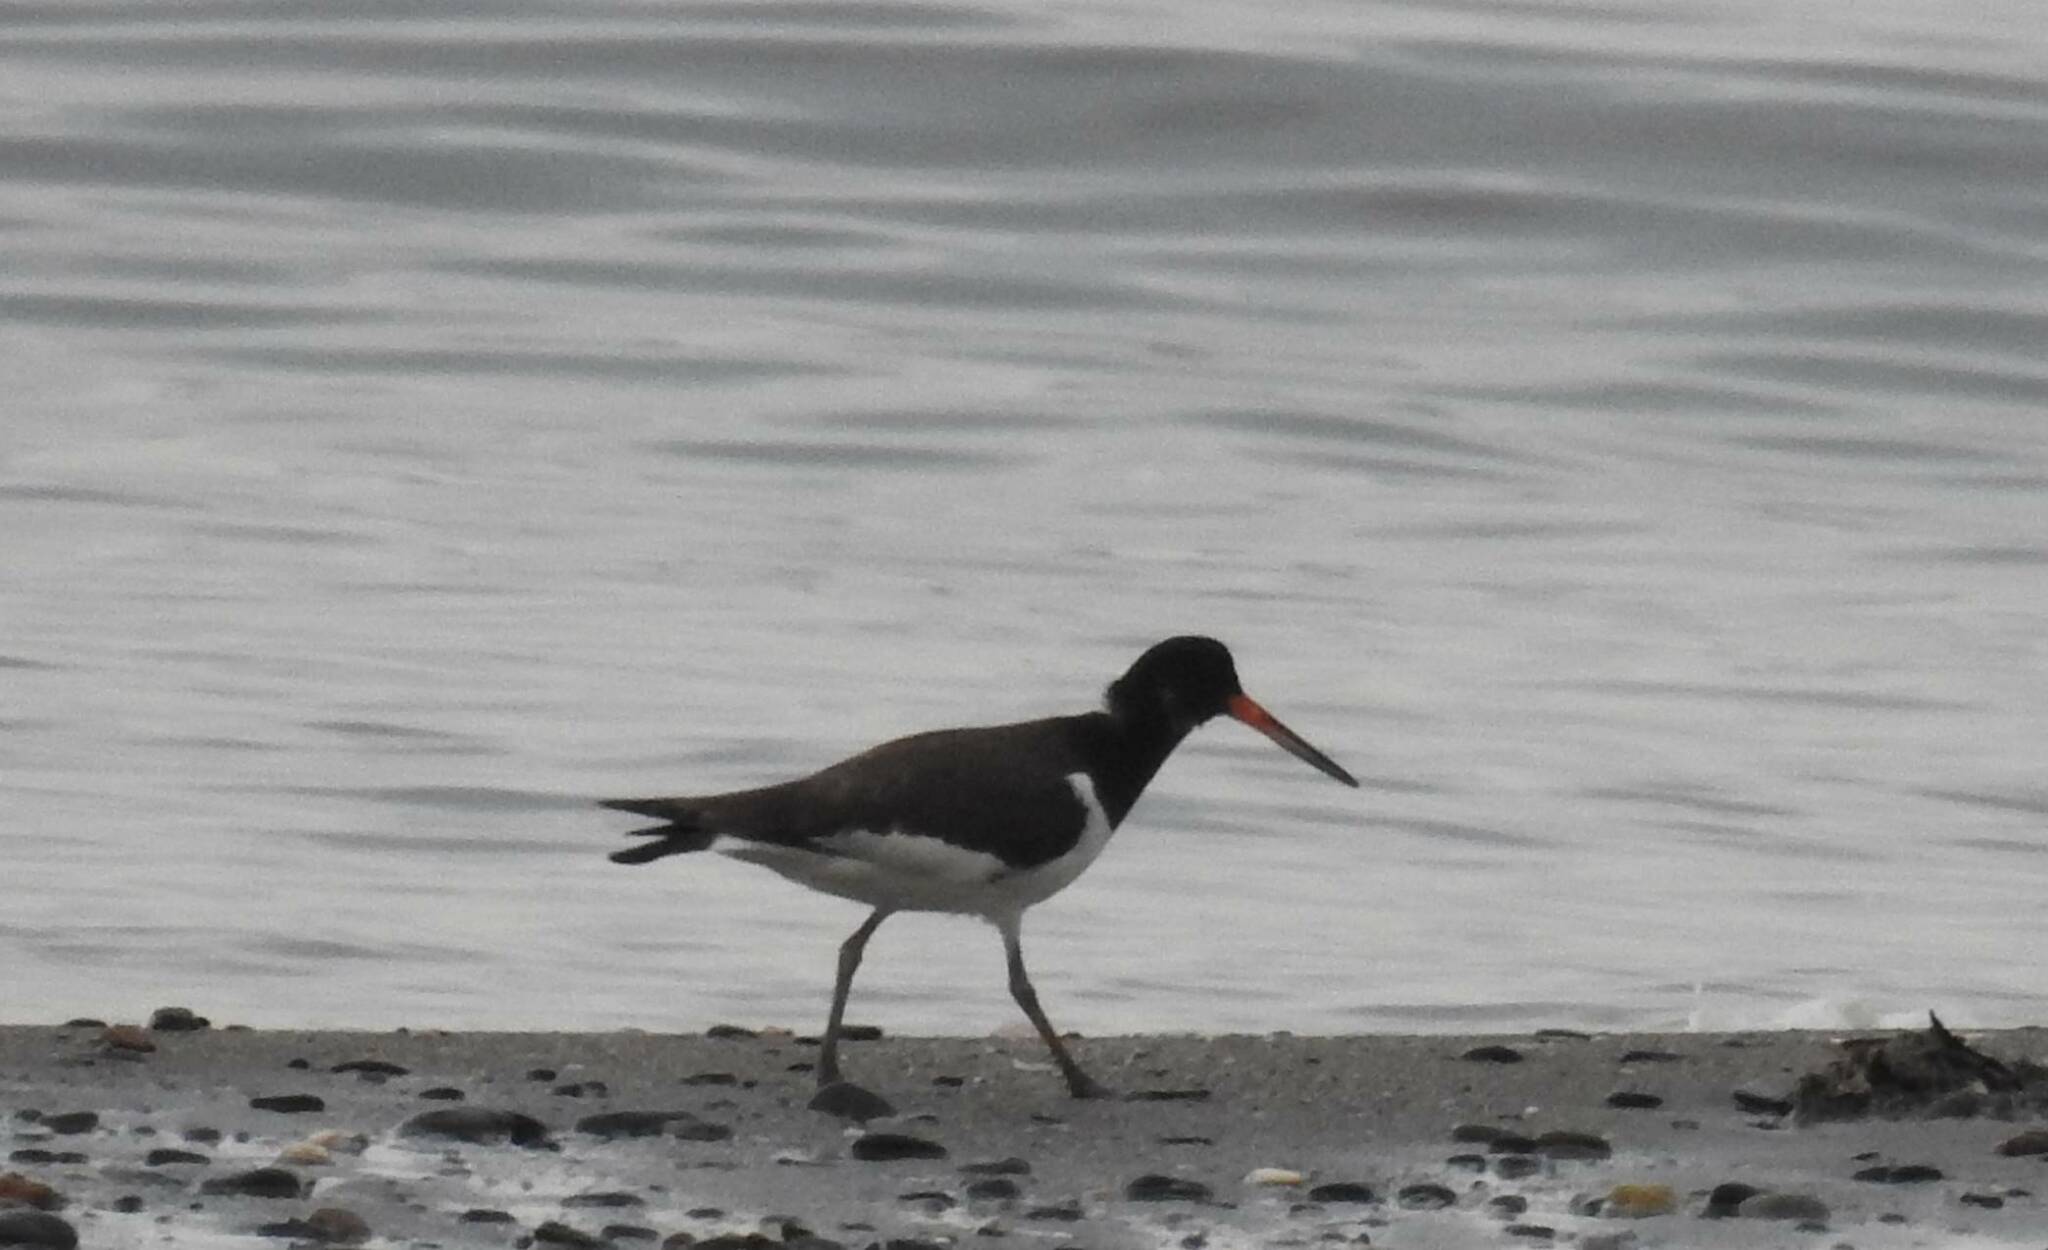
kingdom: Animalia
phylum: Chordata
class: Aves
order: Charadriiformes
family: Haematopodidae
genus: Haematopus
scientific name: Haematopus ostralegus
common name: Eurasian oystercatcher
